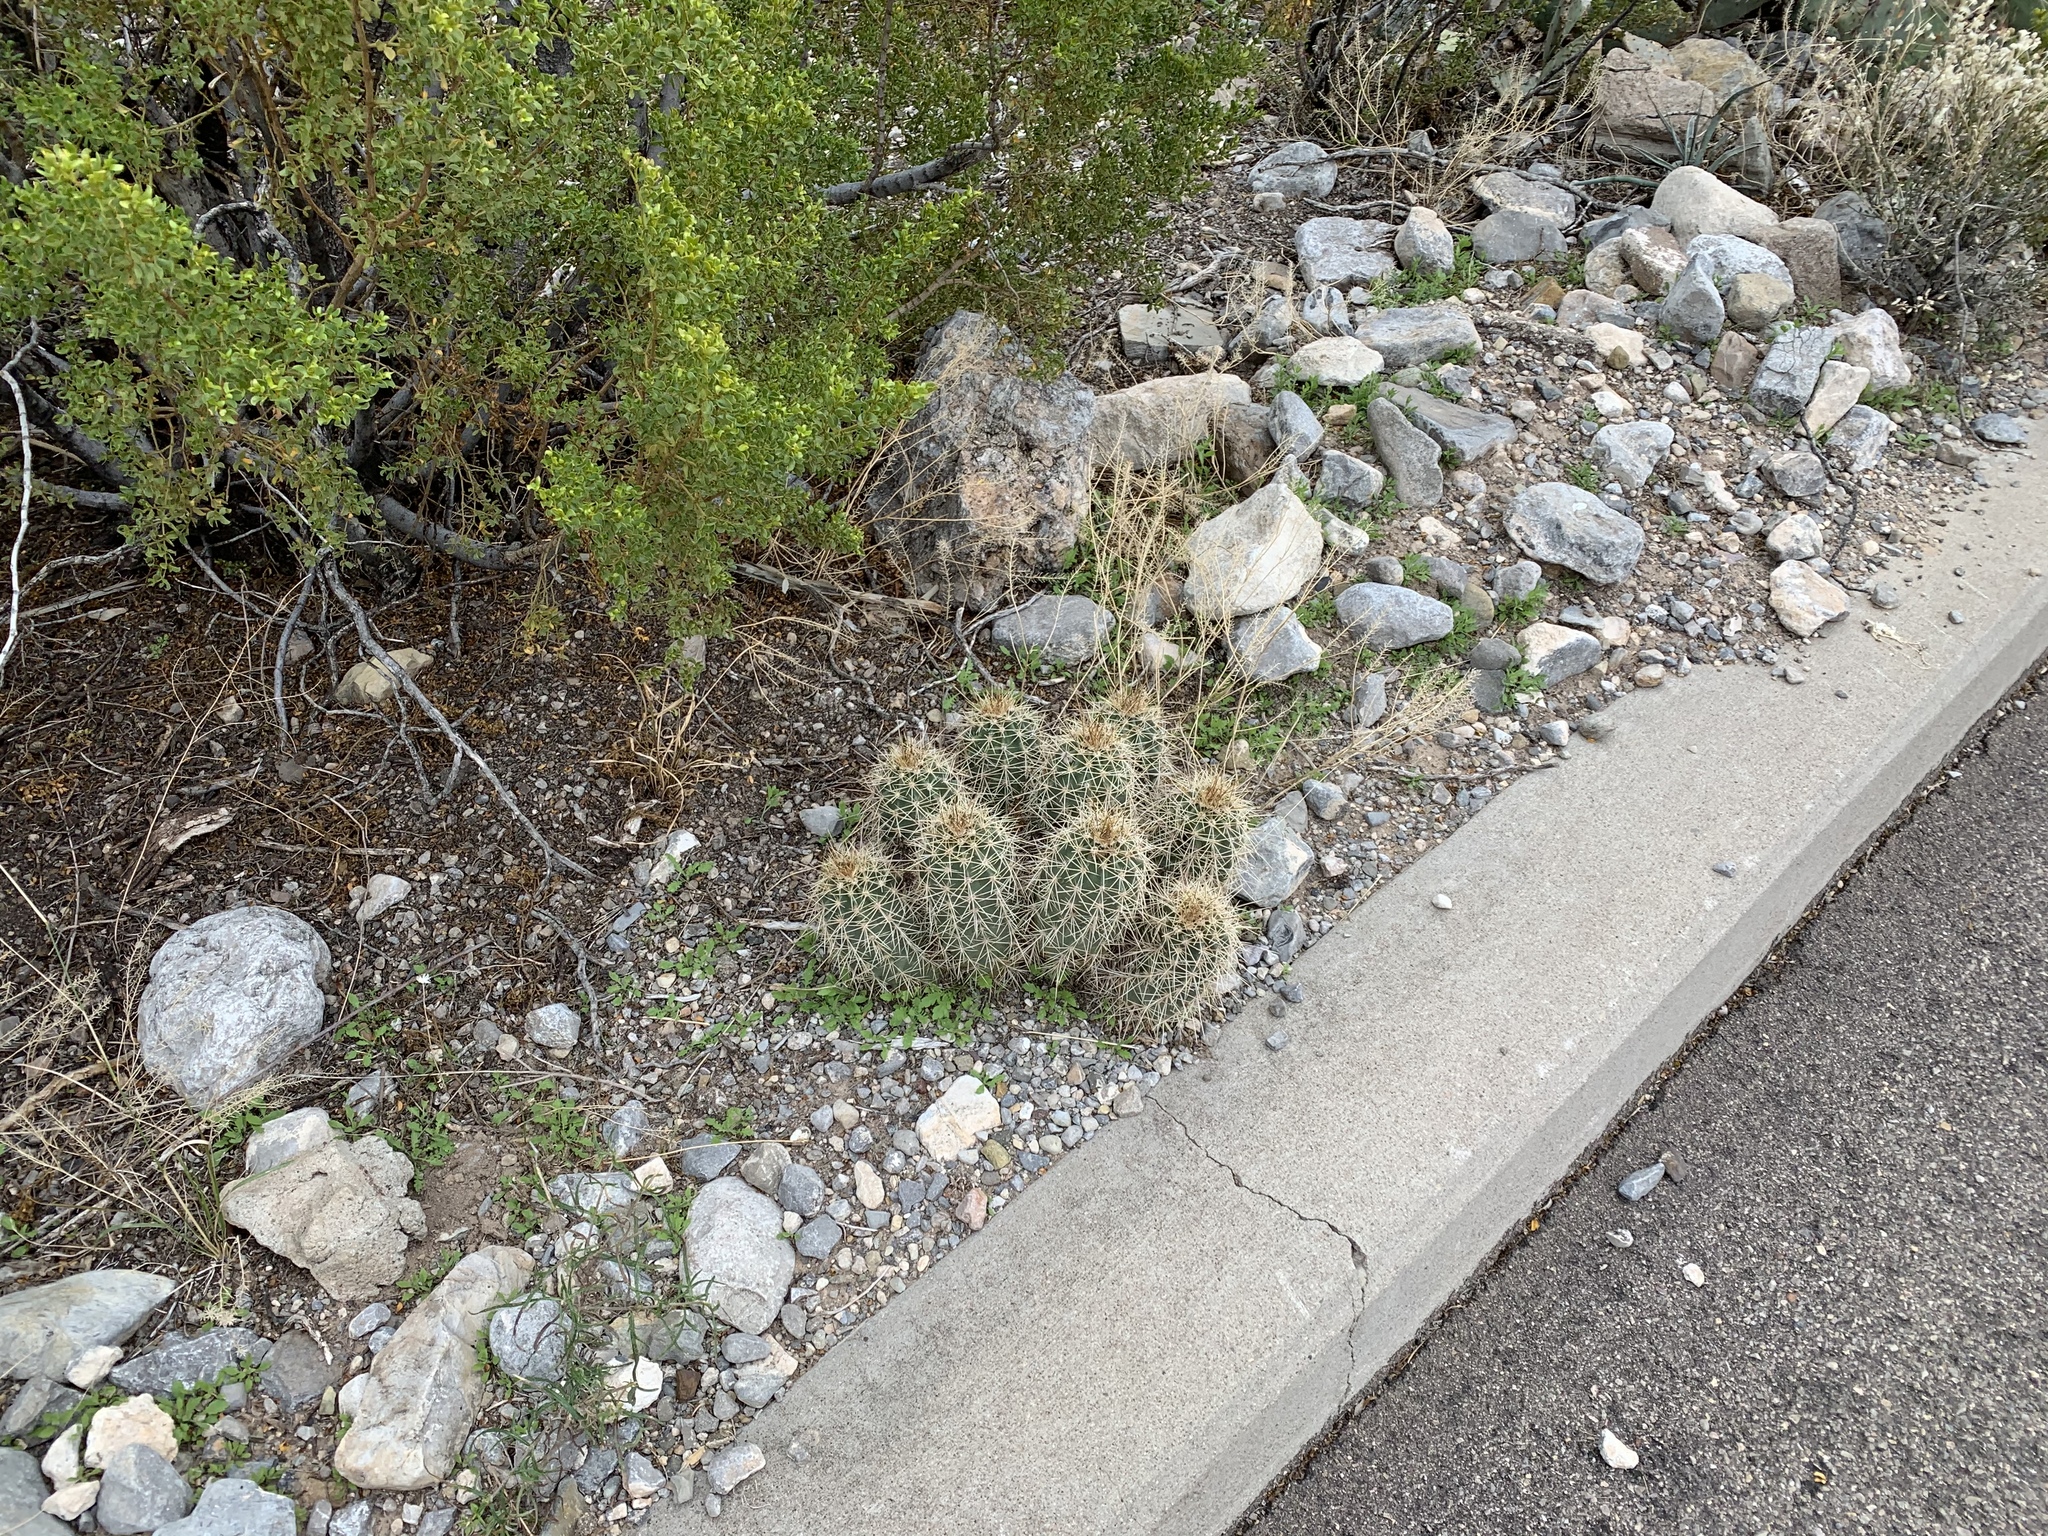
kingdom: Plantae
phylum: Tracheophyta
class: Magnoliopsida
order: Caryophyllales
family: Cactaceae
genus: Echinocereus
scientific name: Echinocereus coccineus
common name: Scarlet hedgehog cactus
